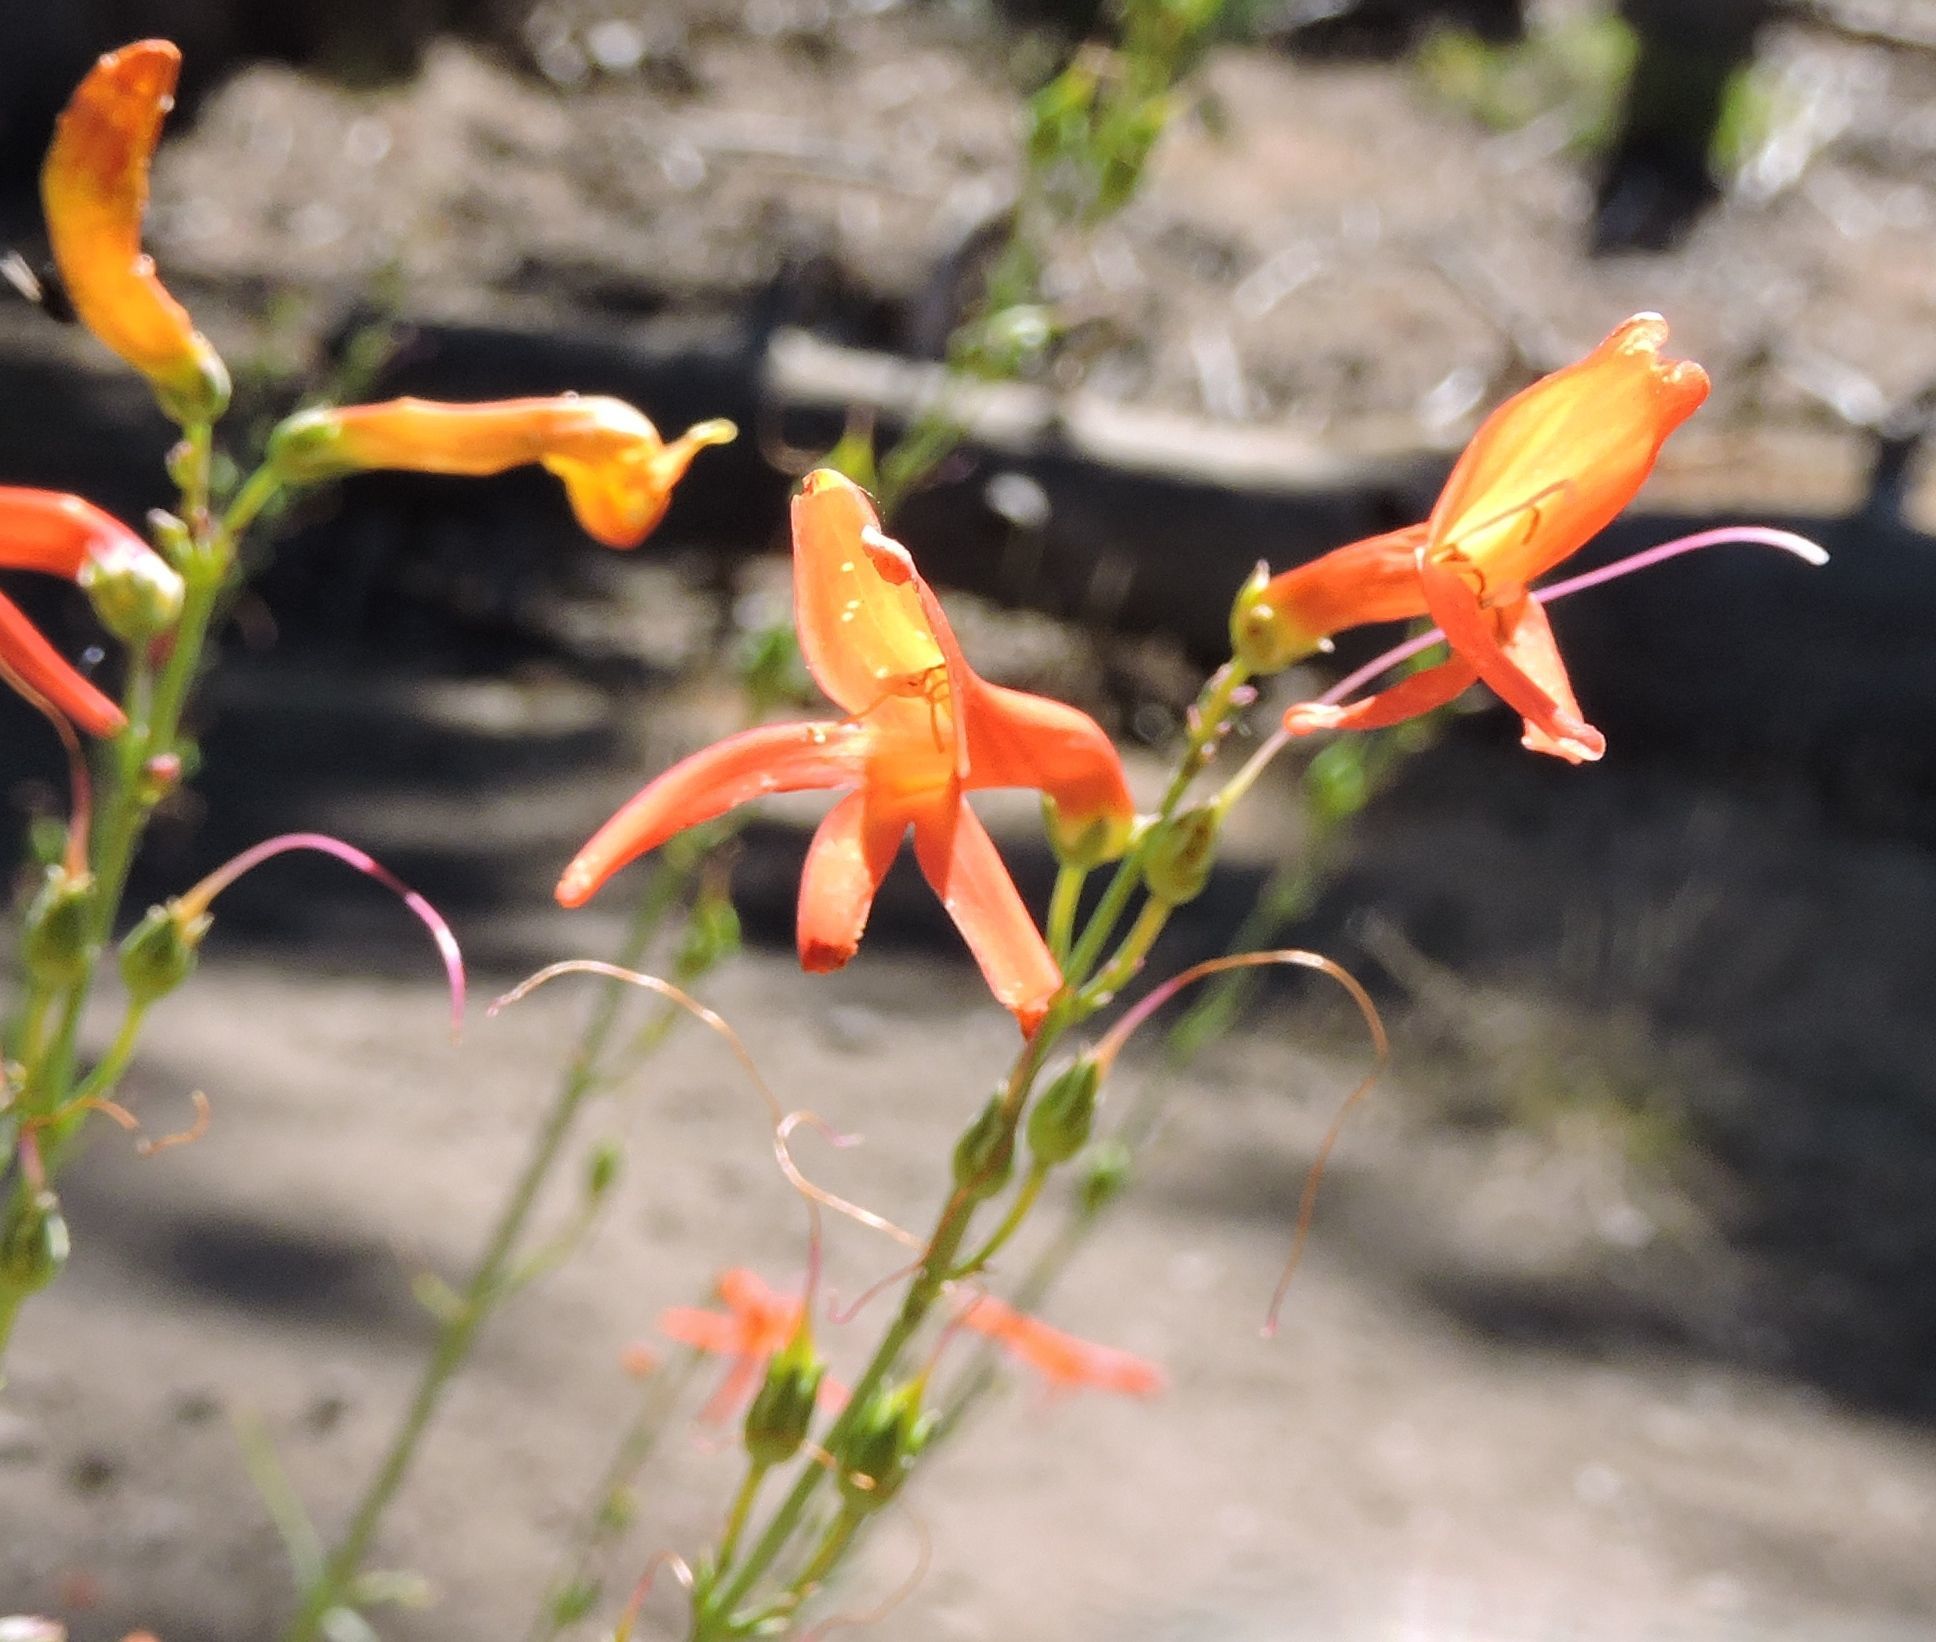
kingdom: Plantae
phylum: Tracheophyta
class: Magnoliopsida
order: Lamiales
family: Plantaginaceae
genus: Penstemon
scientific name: Penstemon labrosus
